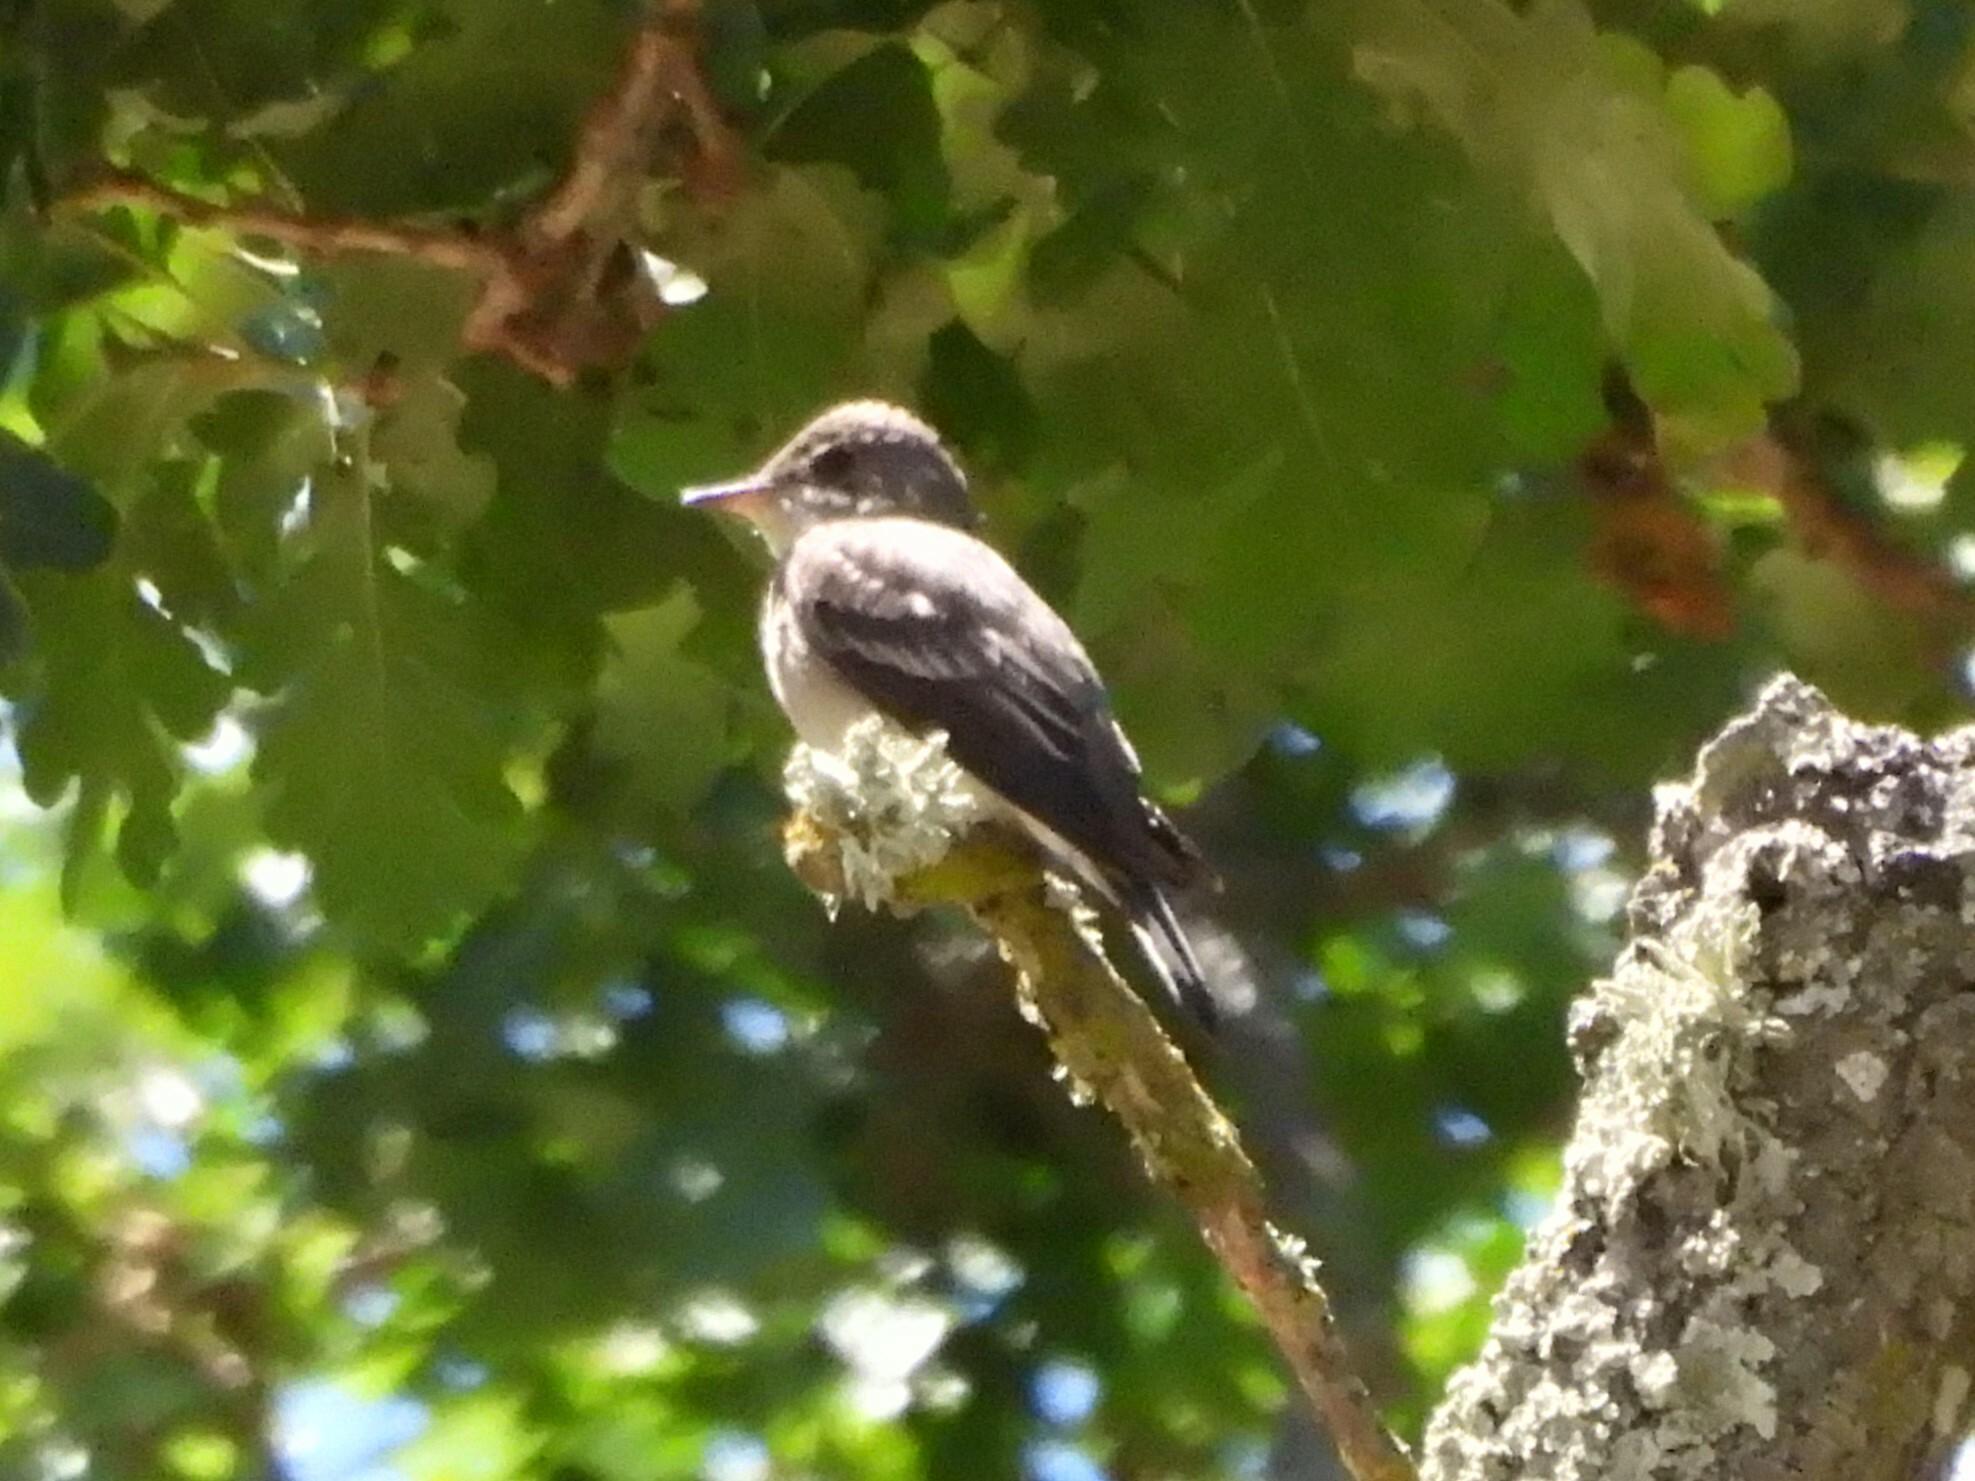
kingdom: Animalia
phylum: Chordata
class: Aves
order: Passeriformes
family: Tyrannidae
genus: Contopus
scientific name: Contopus sordidulus
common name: Western wood-pewee
